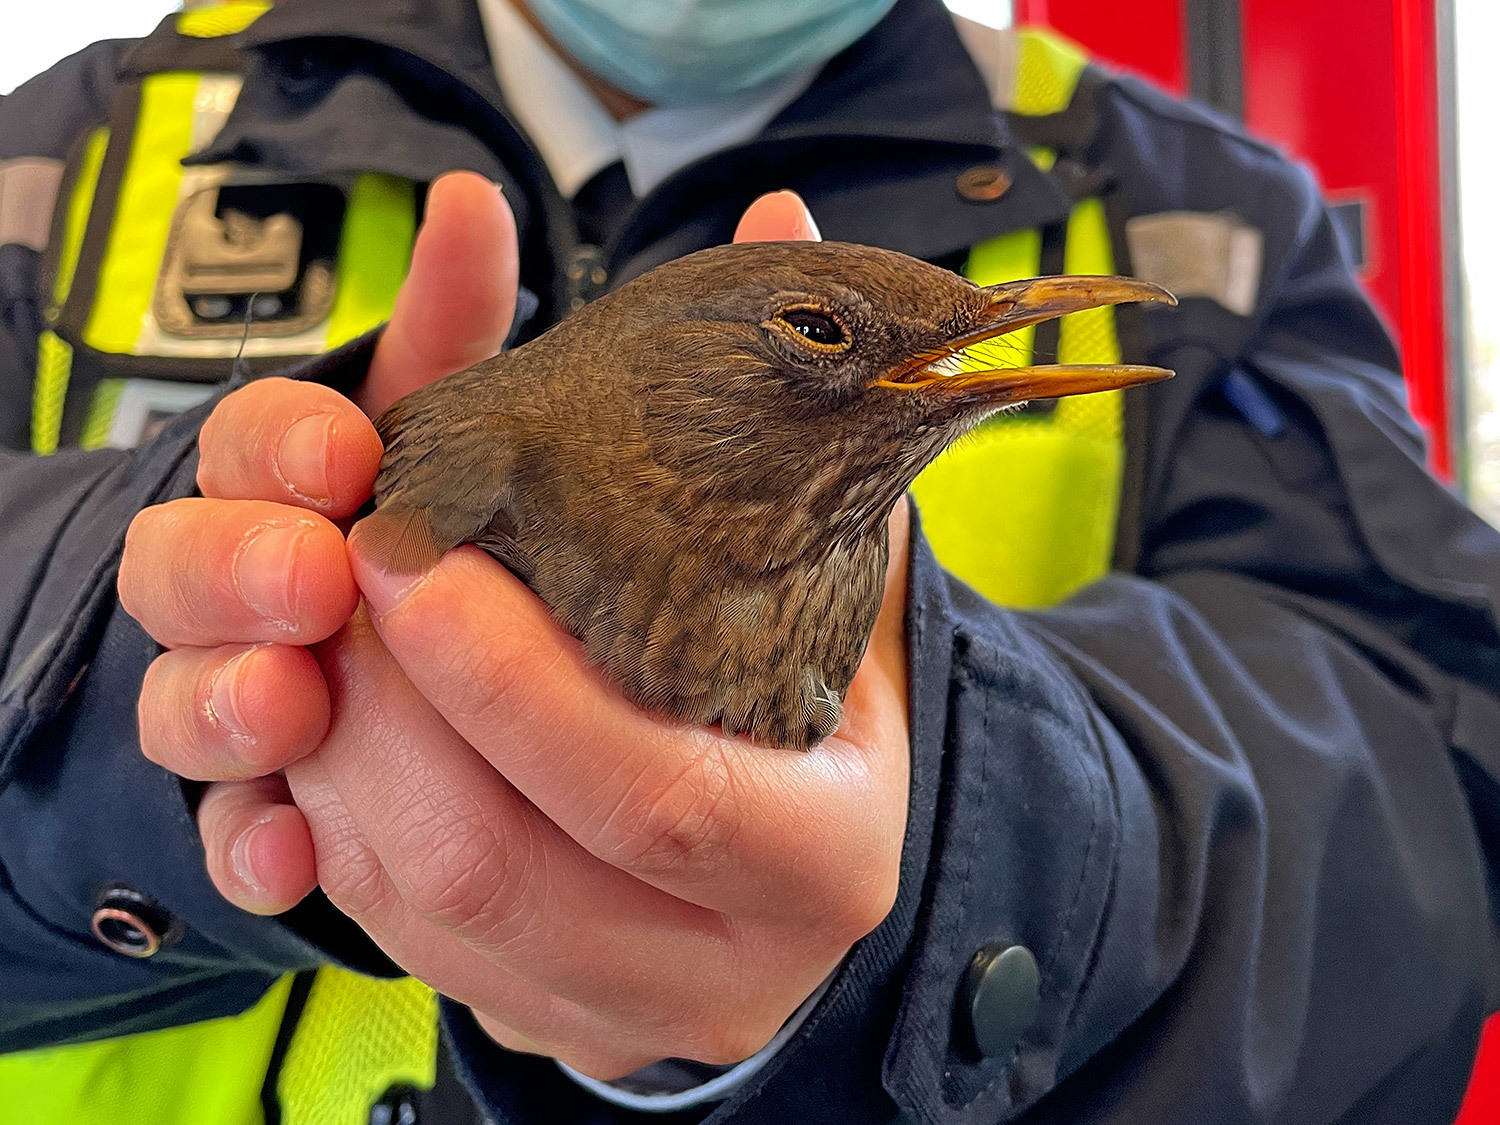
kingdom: Animalia
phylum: Chordata
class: Aves
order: Passeriformes
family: Turdidae
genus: Turdus
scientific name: Turdus merula
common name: Common blackbird
